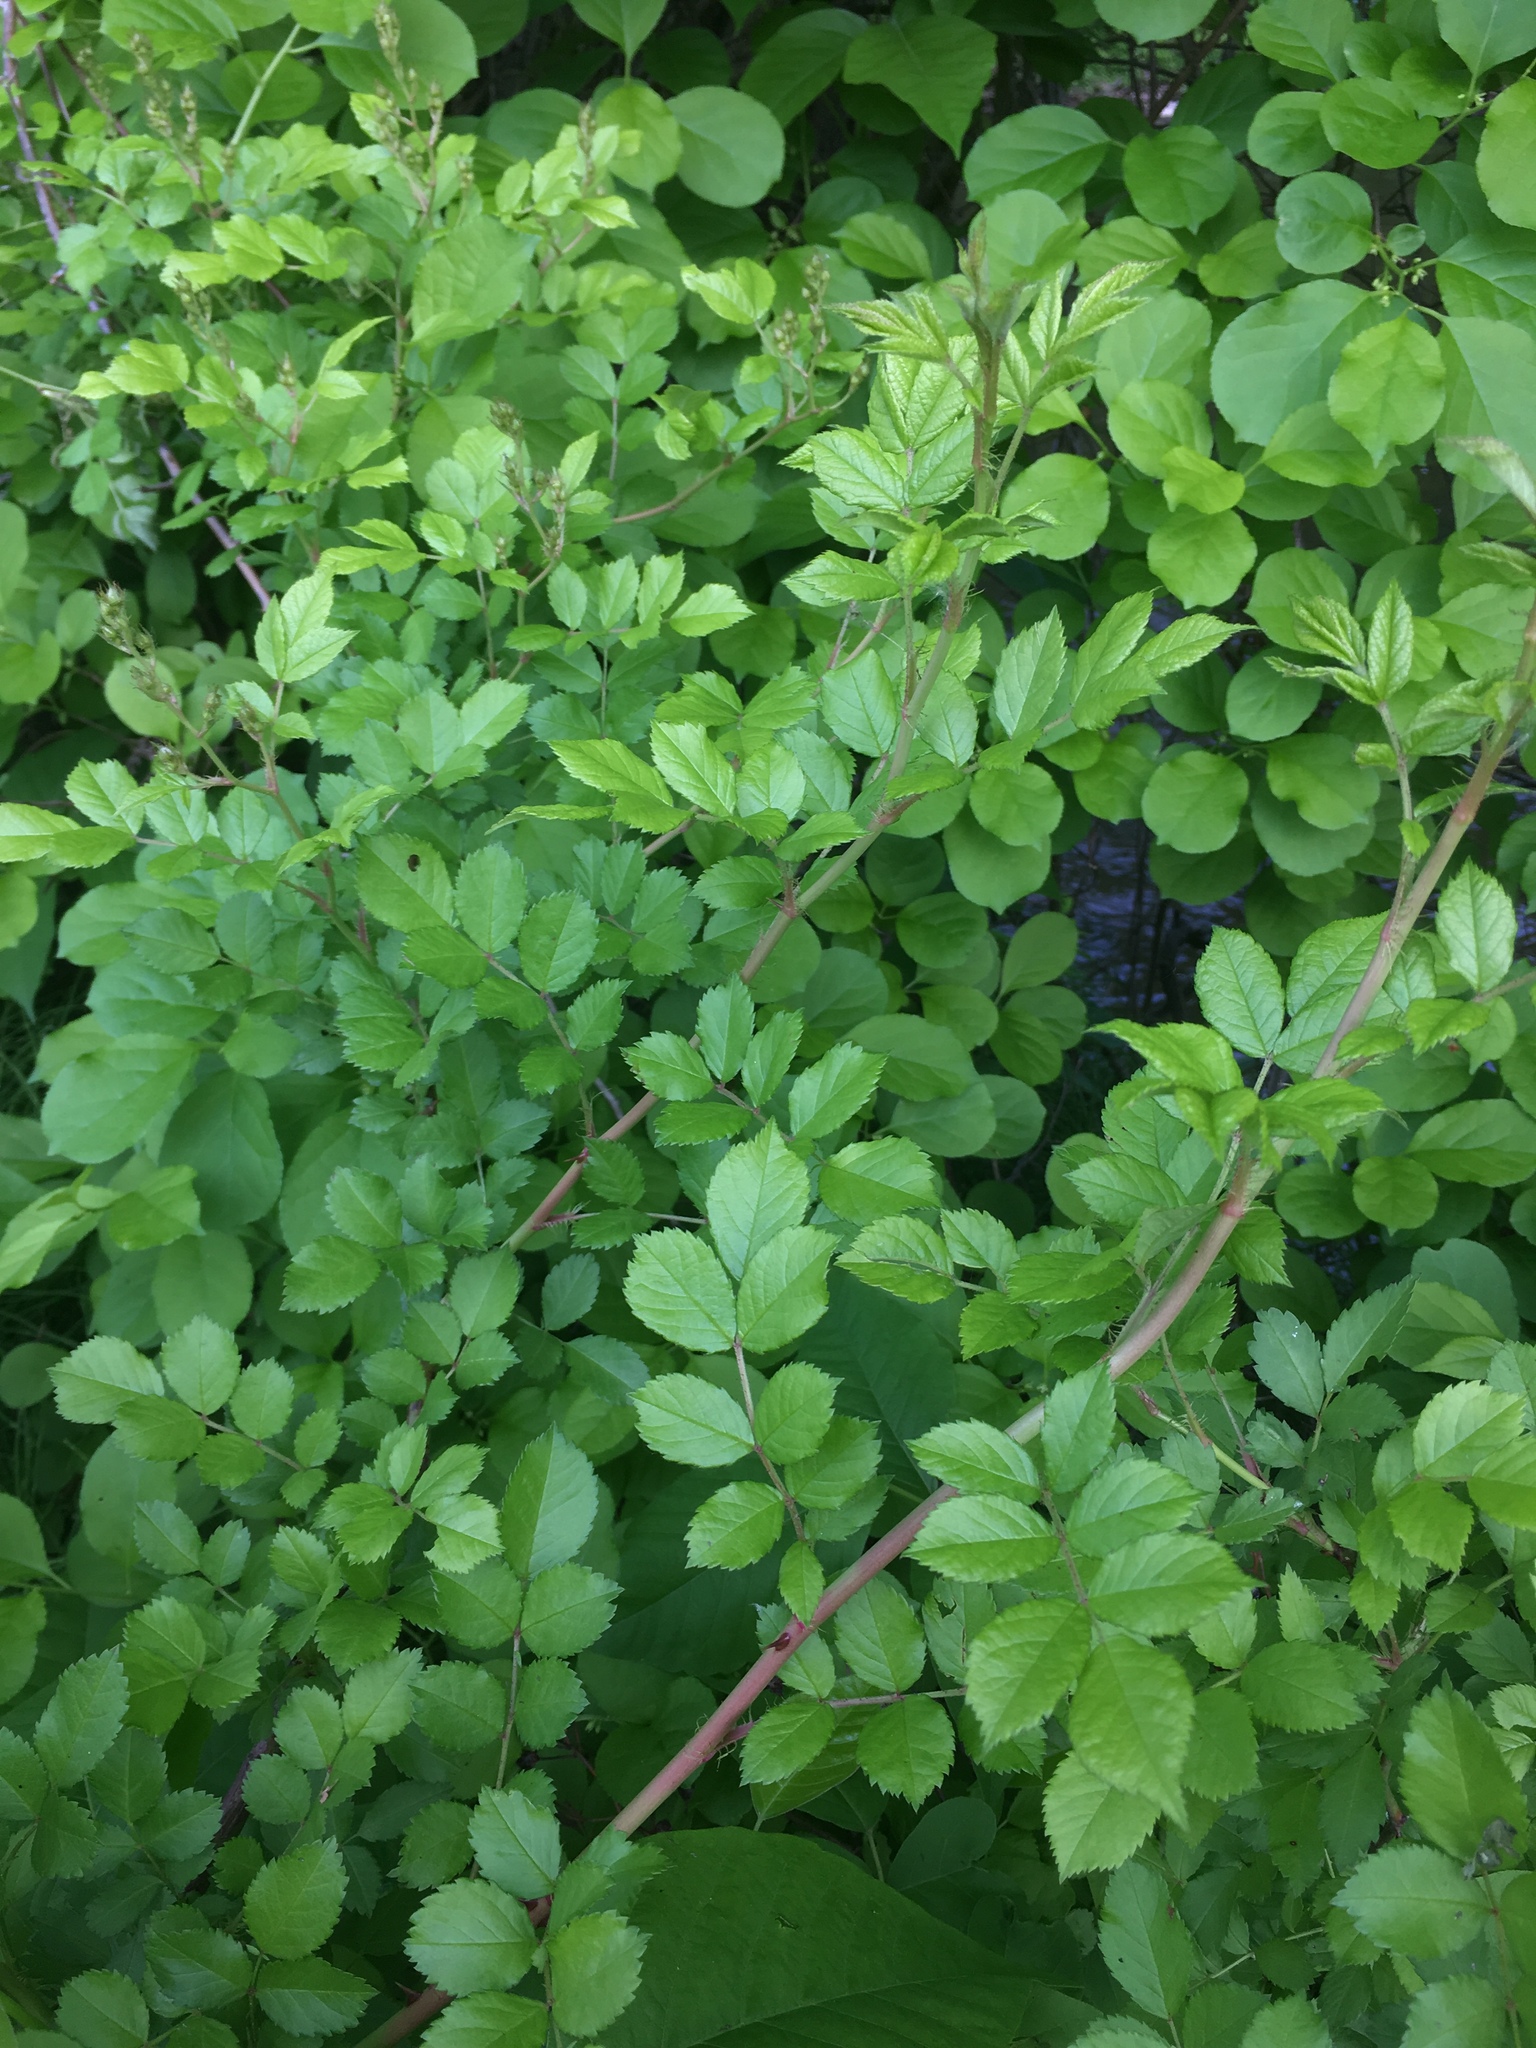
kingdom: Plantae
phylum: Tracheophyta
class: Magnoliopsida
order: Rosales
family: Rosaceae
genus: Rosa
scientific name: Rosa multiflora
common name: Multiflora rose
